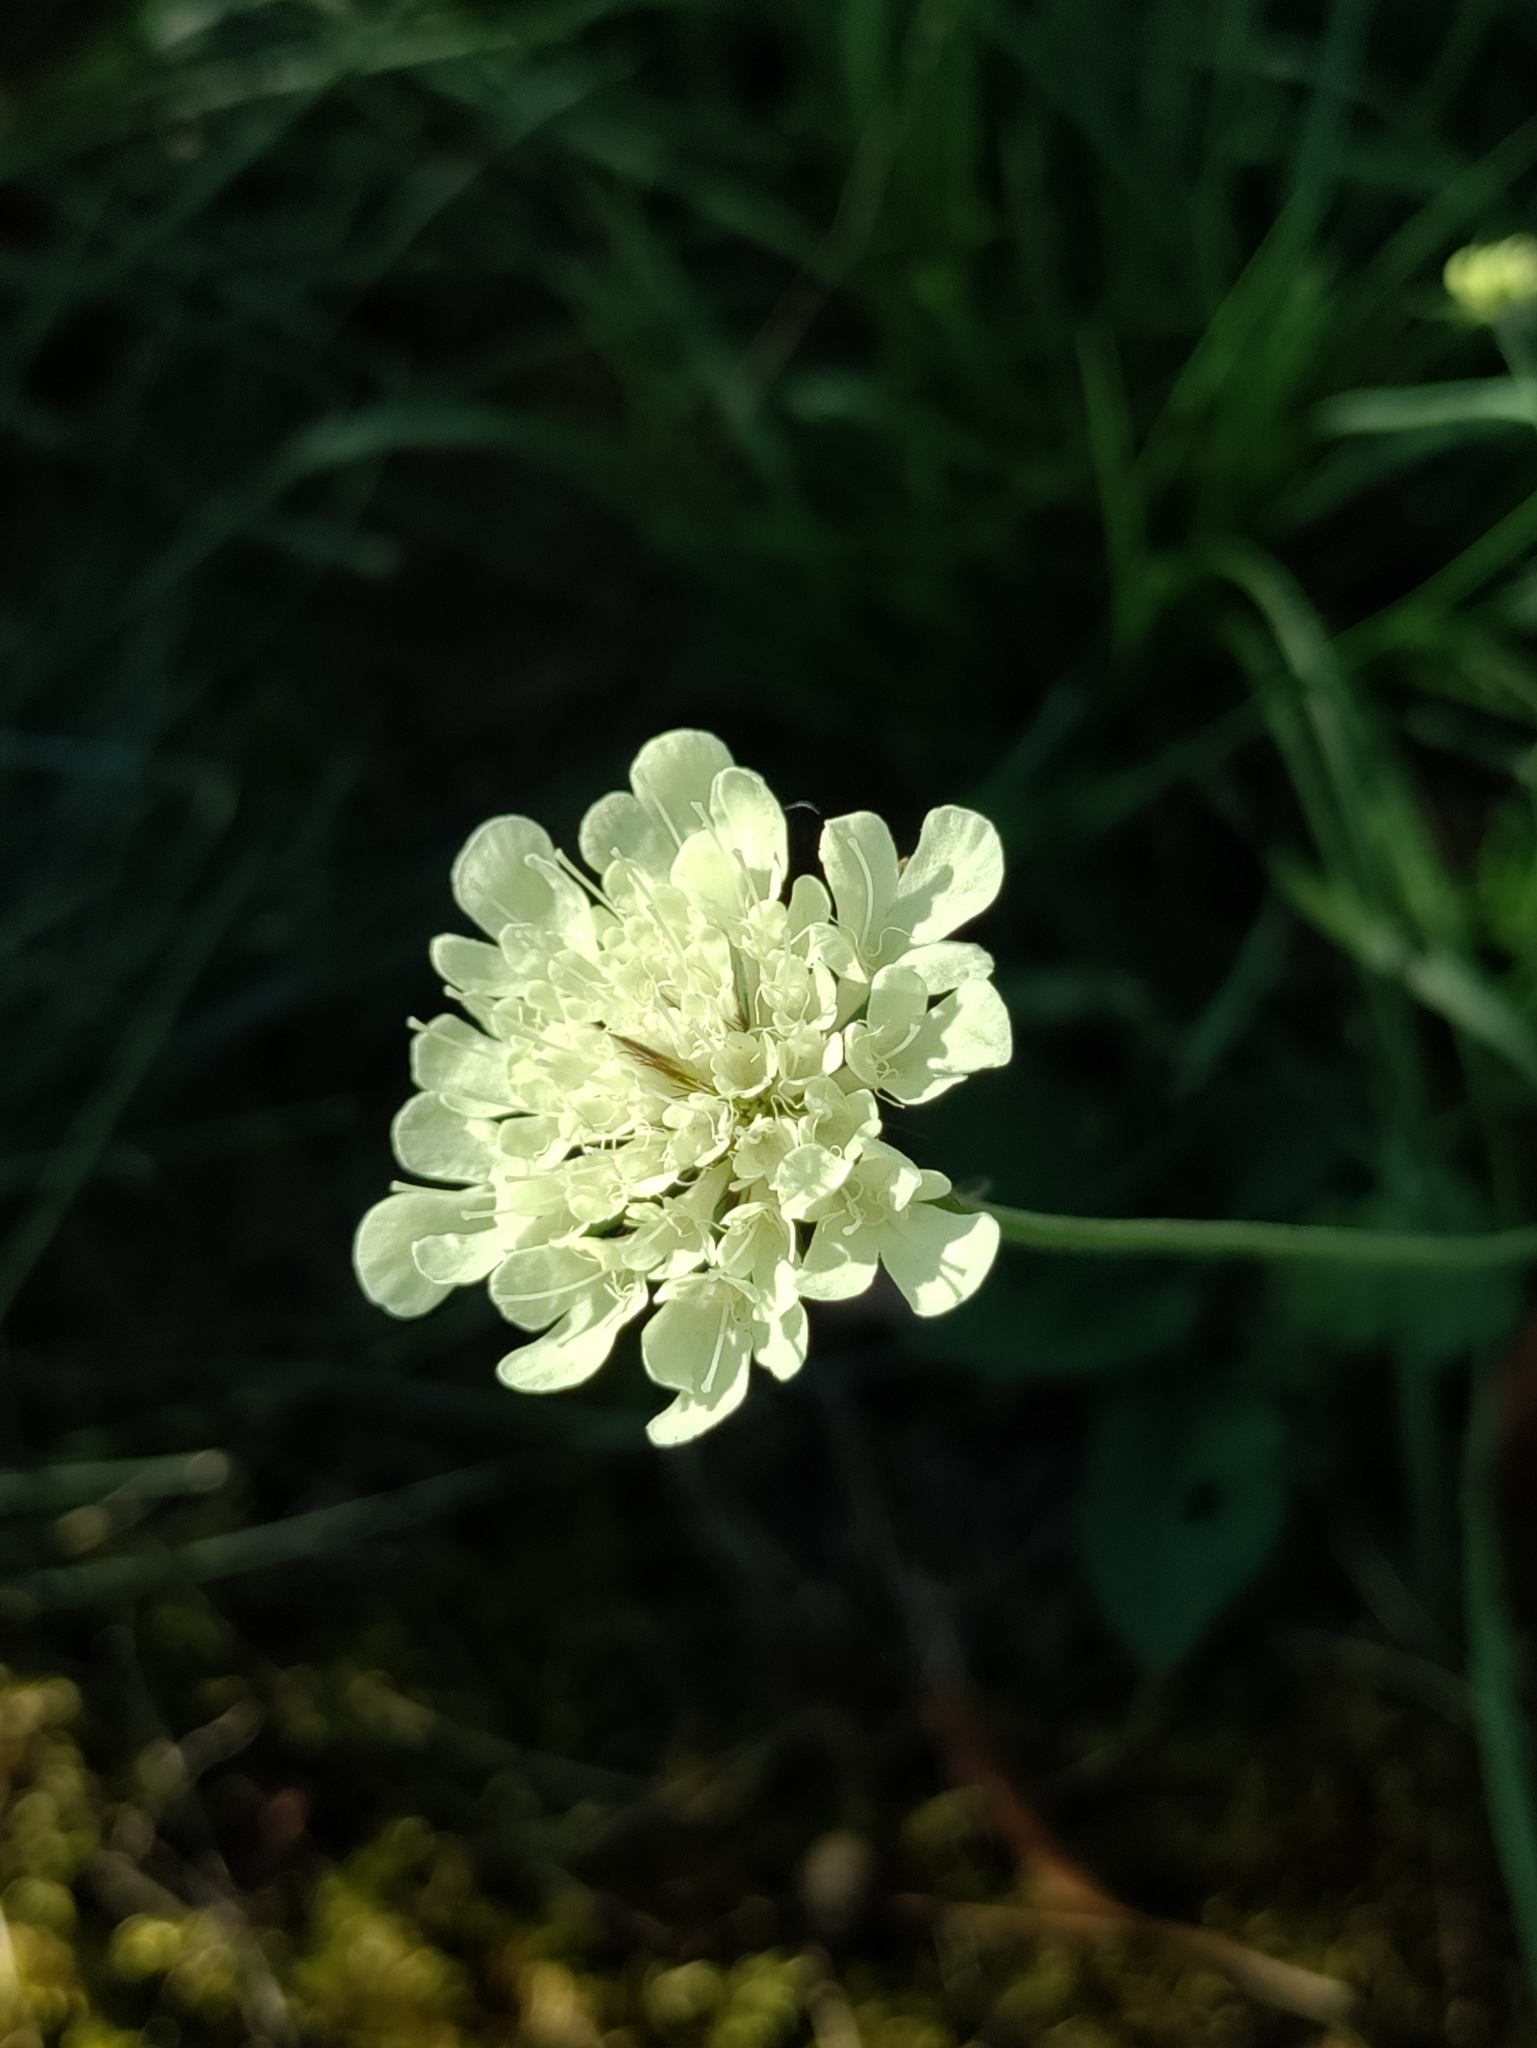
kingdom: Plantae
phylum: Tracheophyta
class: Magnoliopsida
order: Dipsacales
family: Caprifoliaceae
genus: Scabiosa
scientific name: Scabiosa ochroleuca
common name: Cream pincushions
